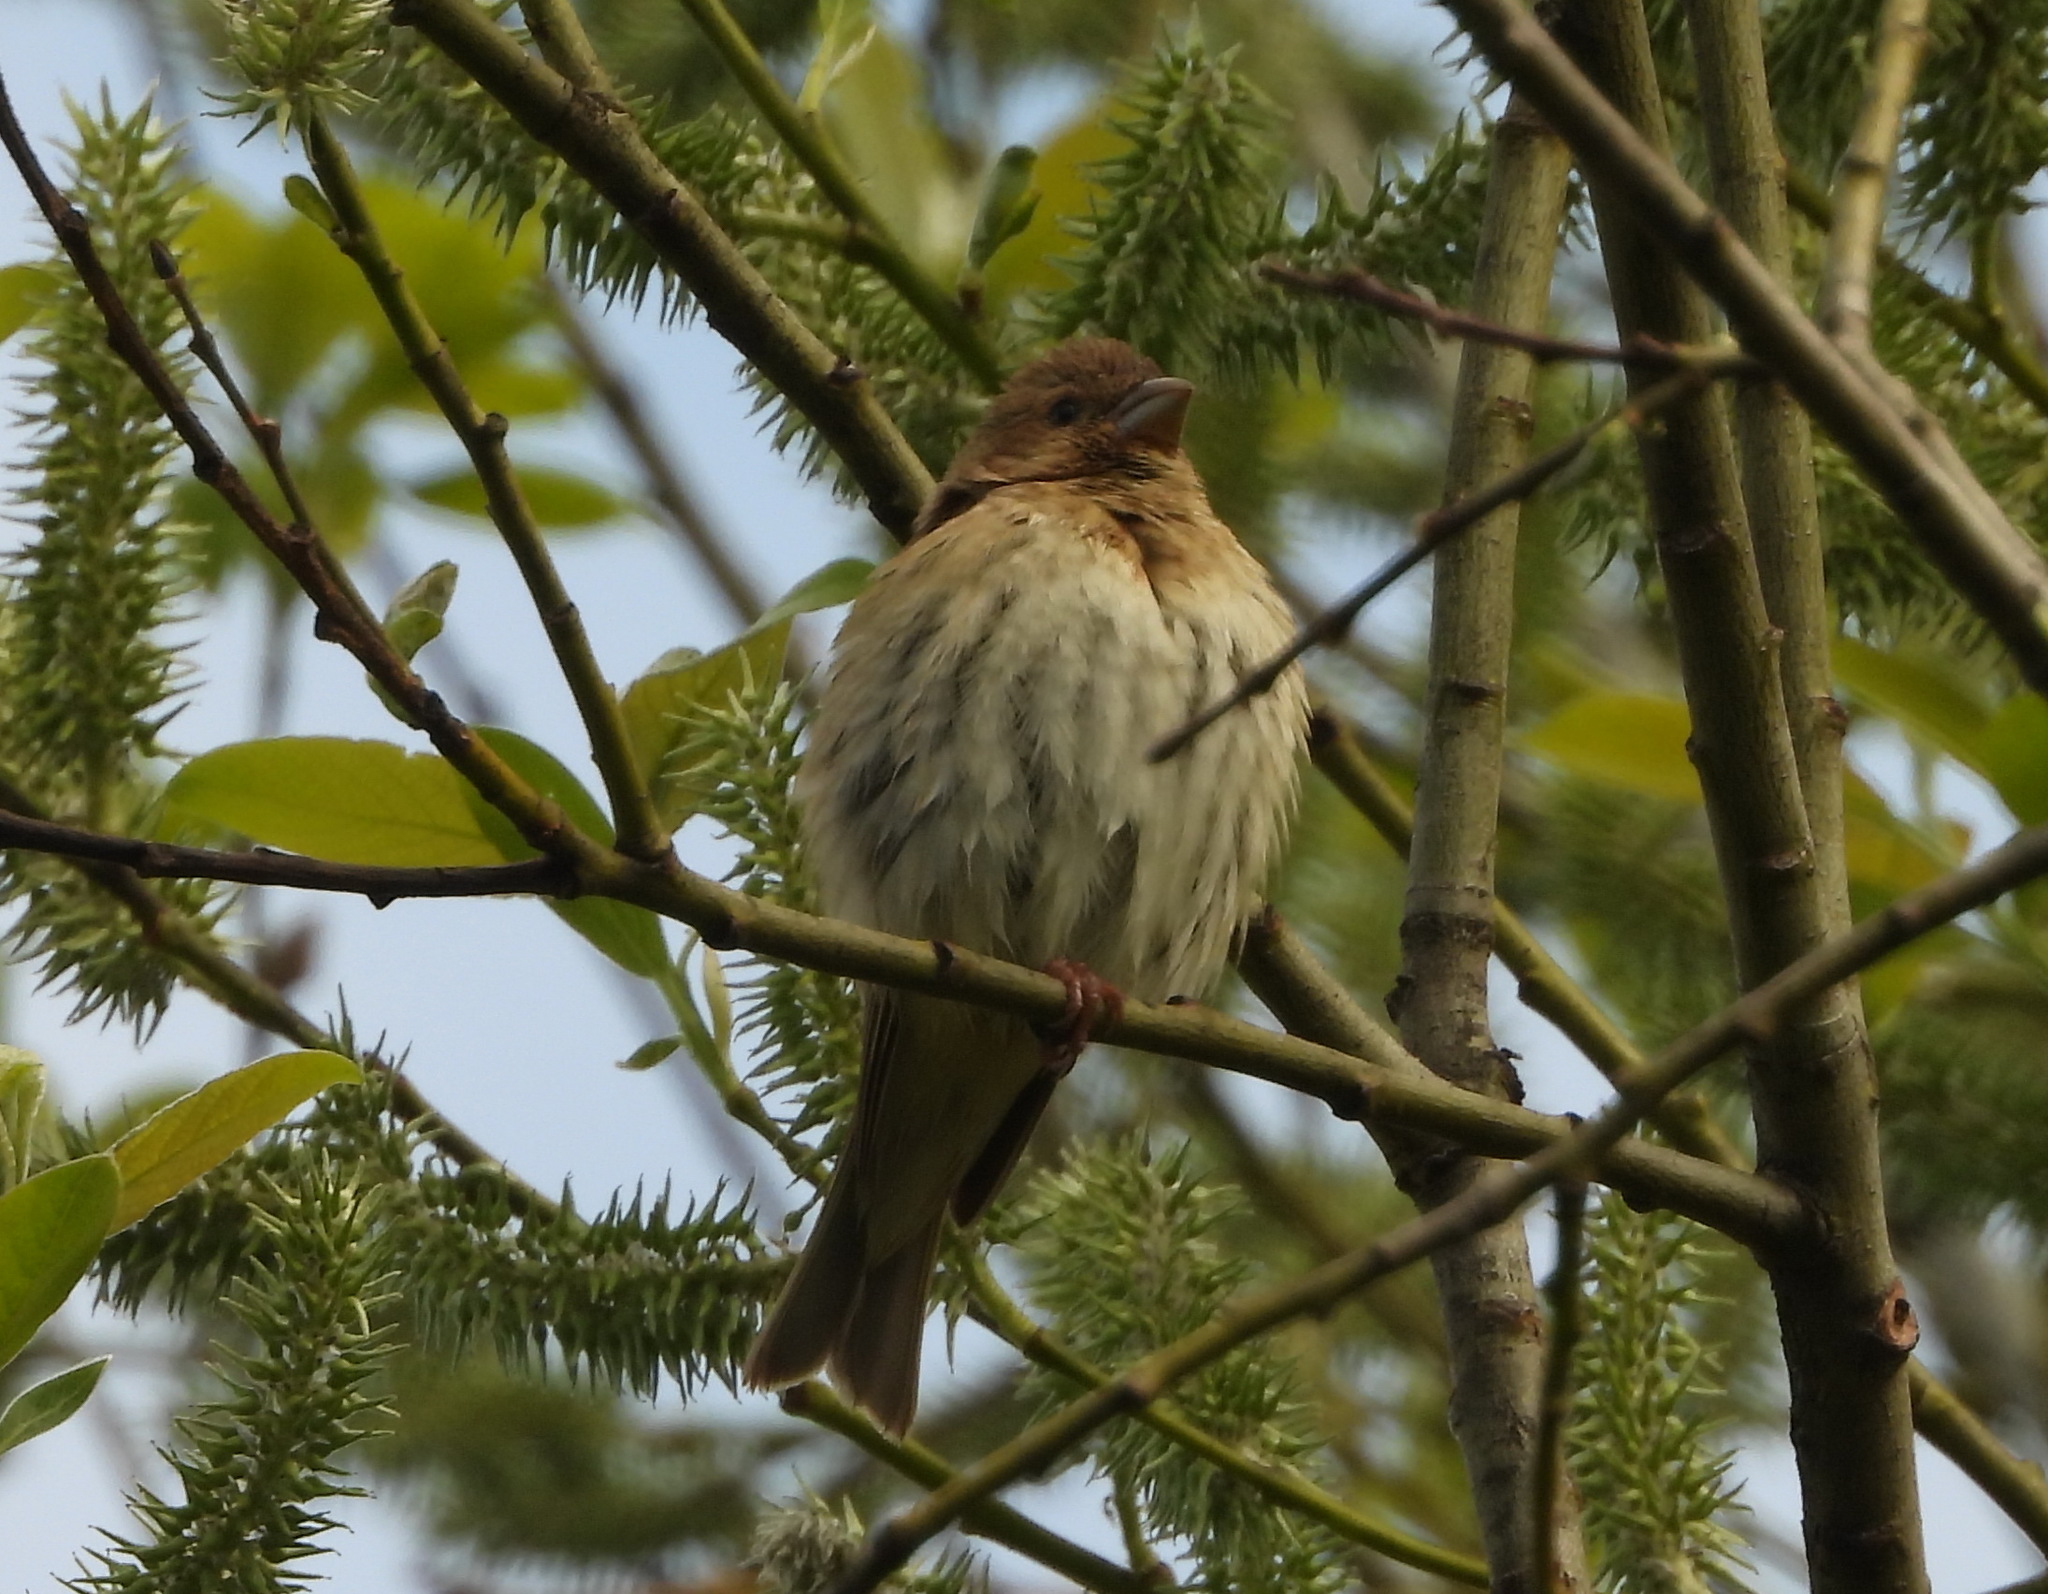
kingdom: Animalia
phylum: Chordata
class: Aves
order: Passeriformes
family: Fringillidae
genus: Carpodacus
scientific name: Carpodacus erythrinus
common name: Common rosefinch
